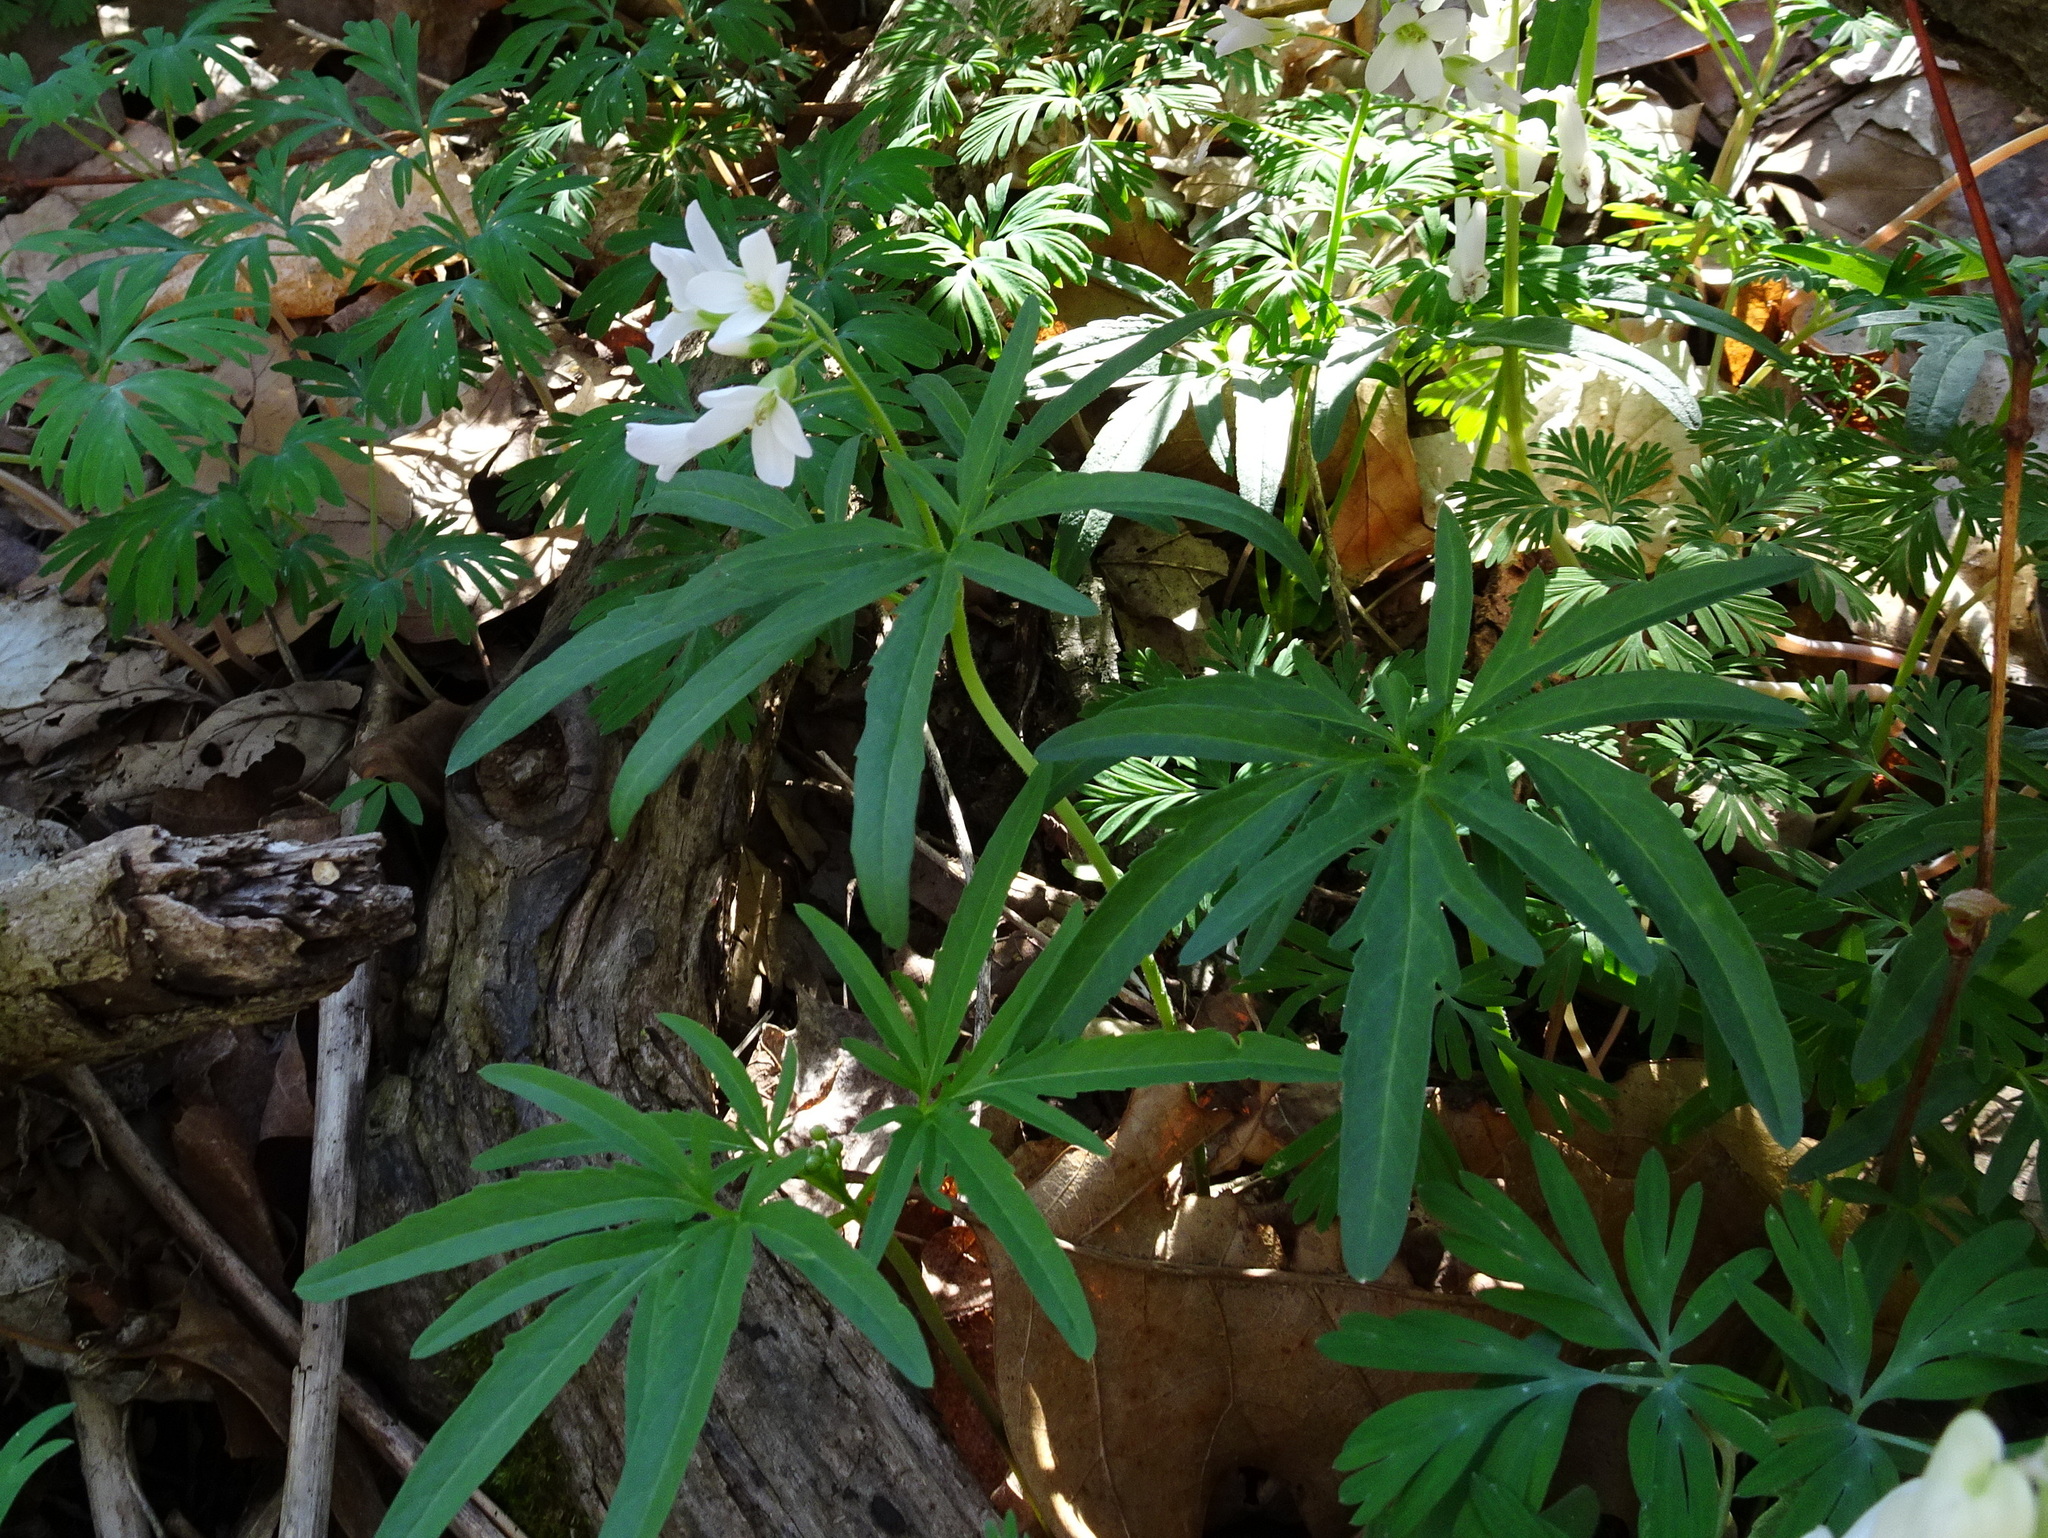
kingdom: Plantae
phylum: Tracheophyta
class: Magnoliopsida
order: Brassicales
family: Brassicaceae
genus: Cardamine
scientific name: Cardamine concatenata
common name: Cut-leaf toothcup
